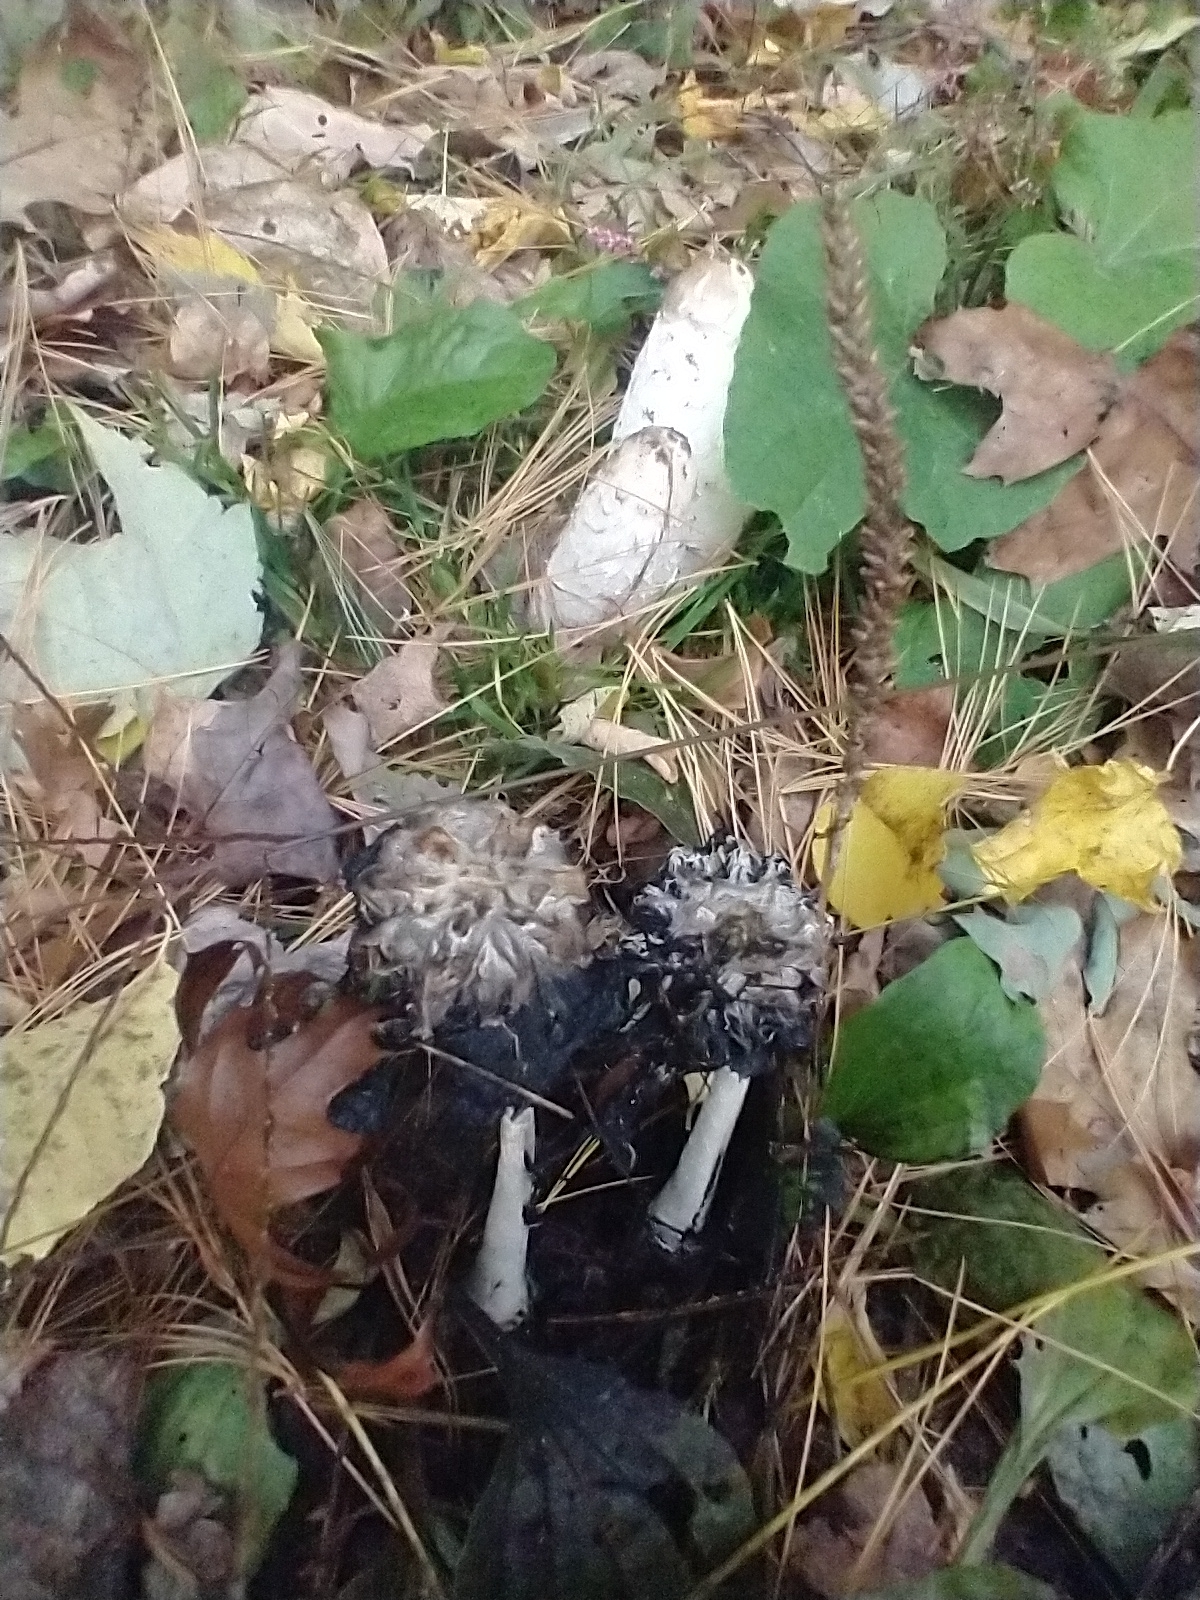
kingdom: Fungi
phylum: Basidiomycota
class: Agaricomycetes
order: Agaricales
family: Agaricaceae
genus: Coprinus
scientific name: Coprinus comatus
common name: Lawyer's wig
